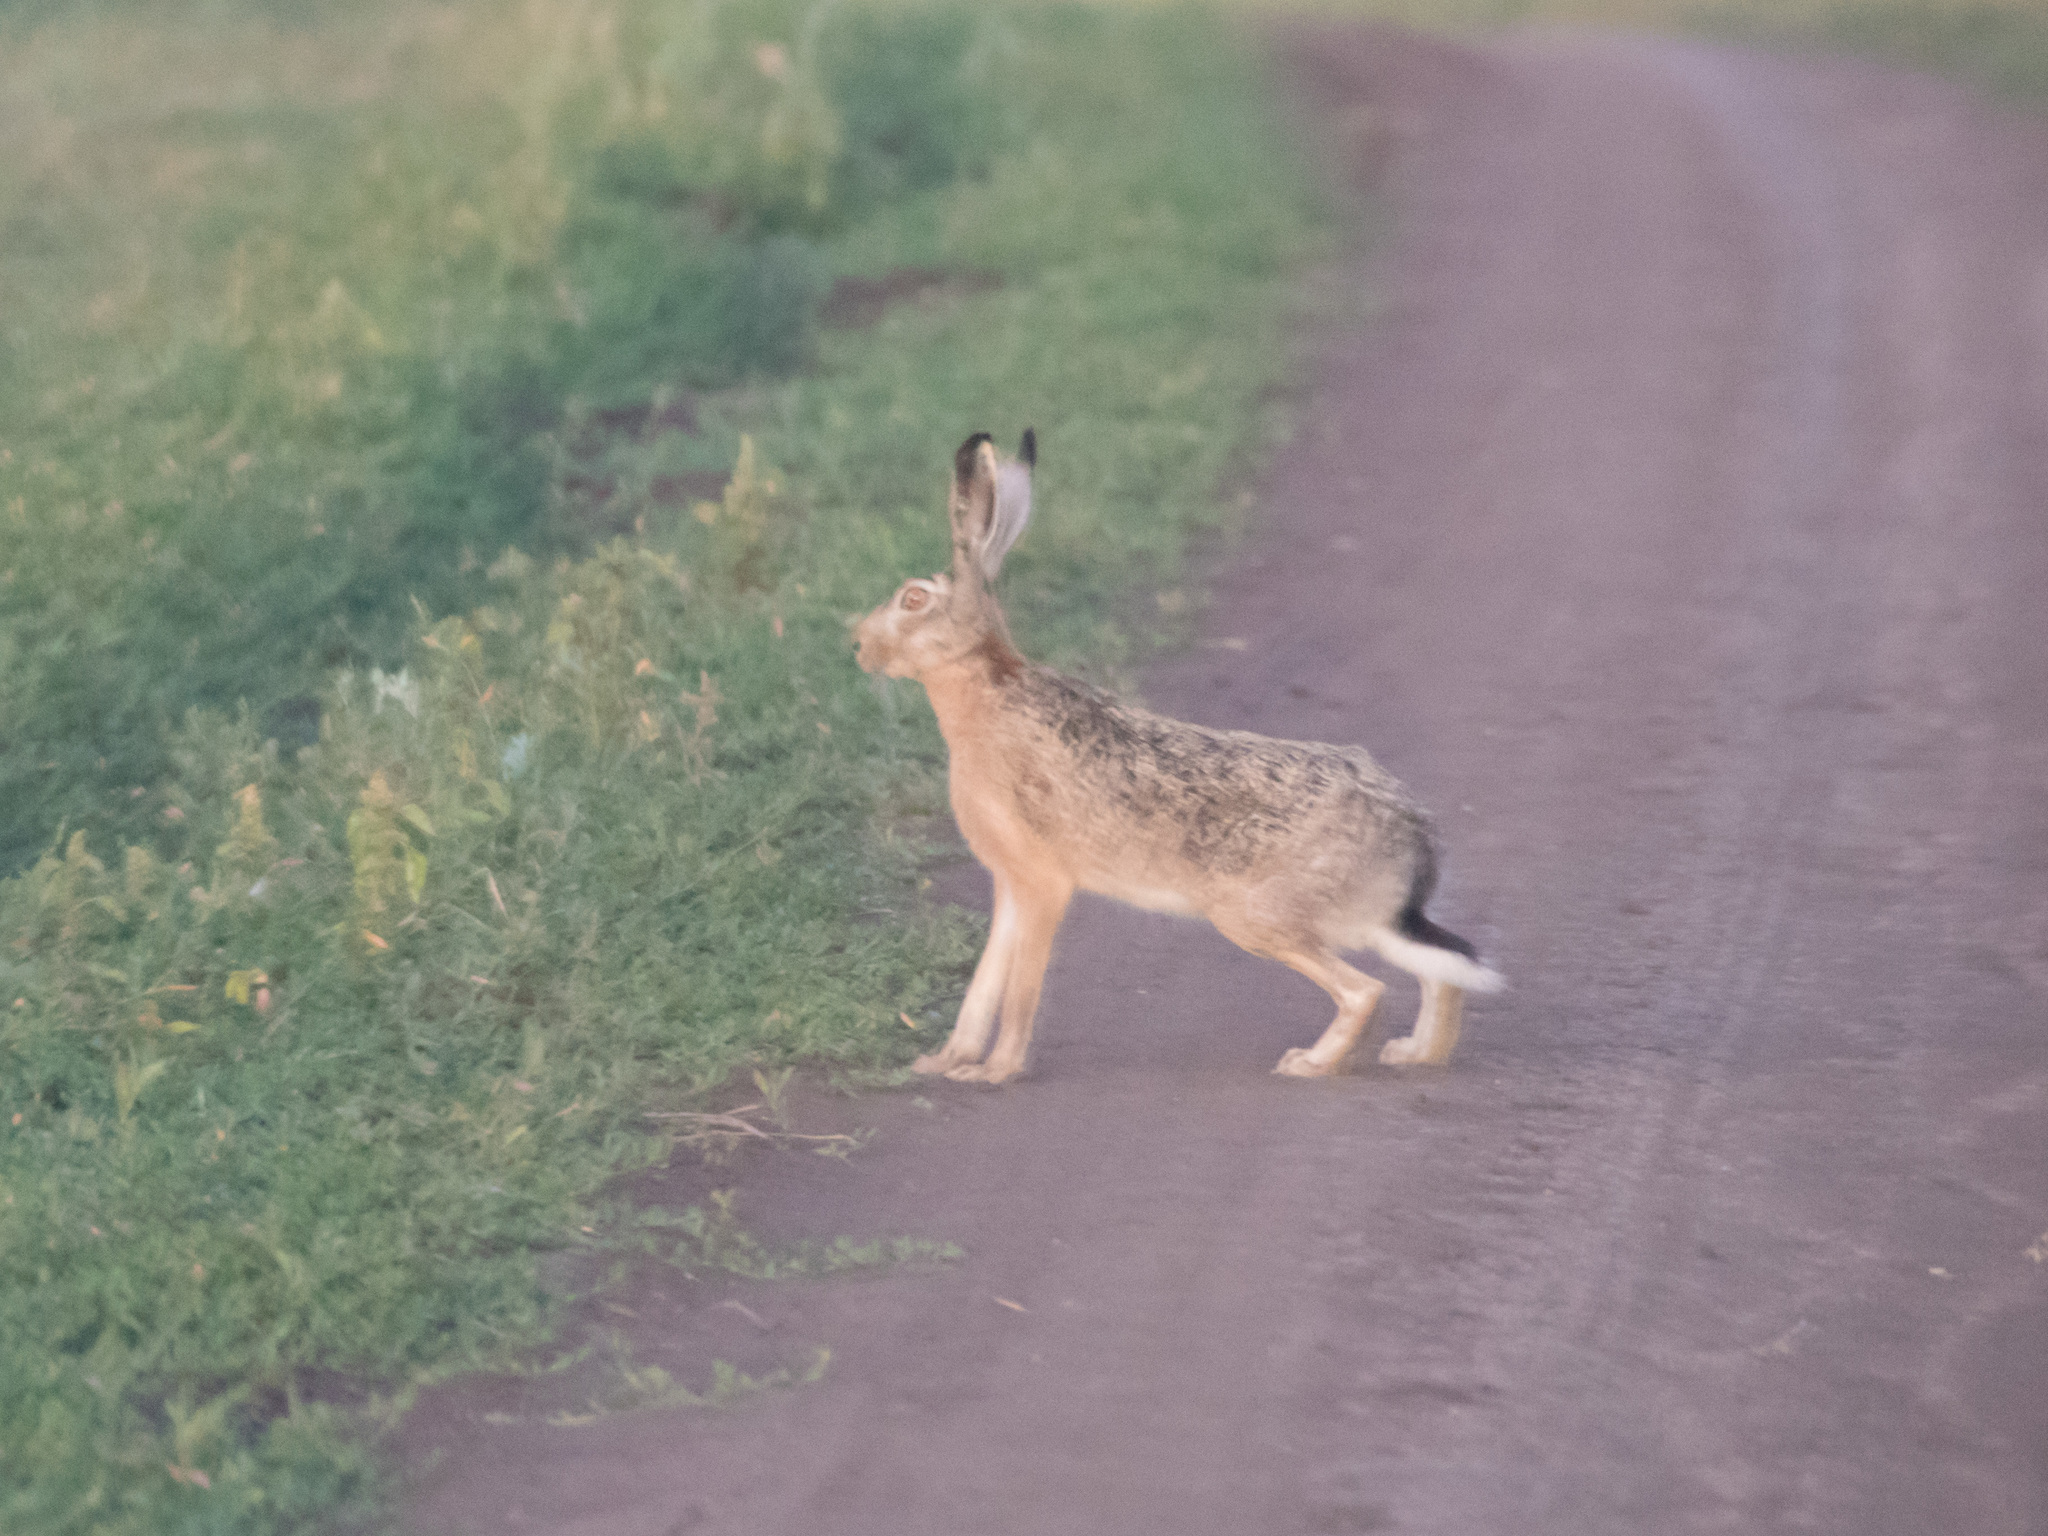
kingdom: Animalia
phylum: Chordata
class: Mammalia
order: Lagomorpha
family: Leporidae
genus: Lepus
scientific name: Lepus europaeus
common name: European hare
